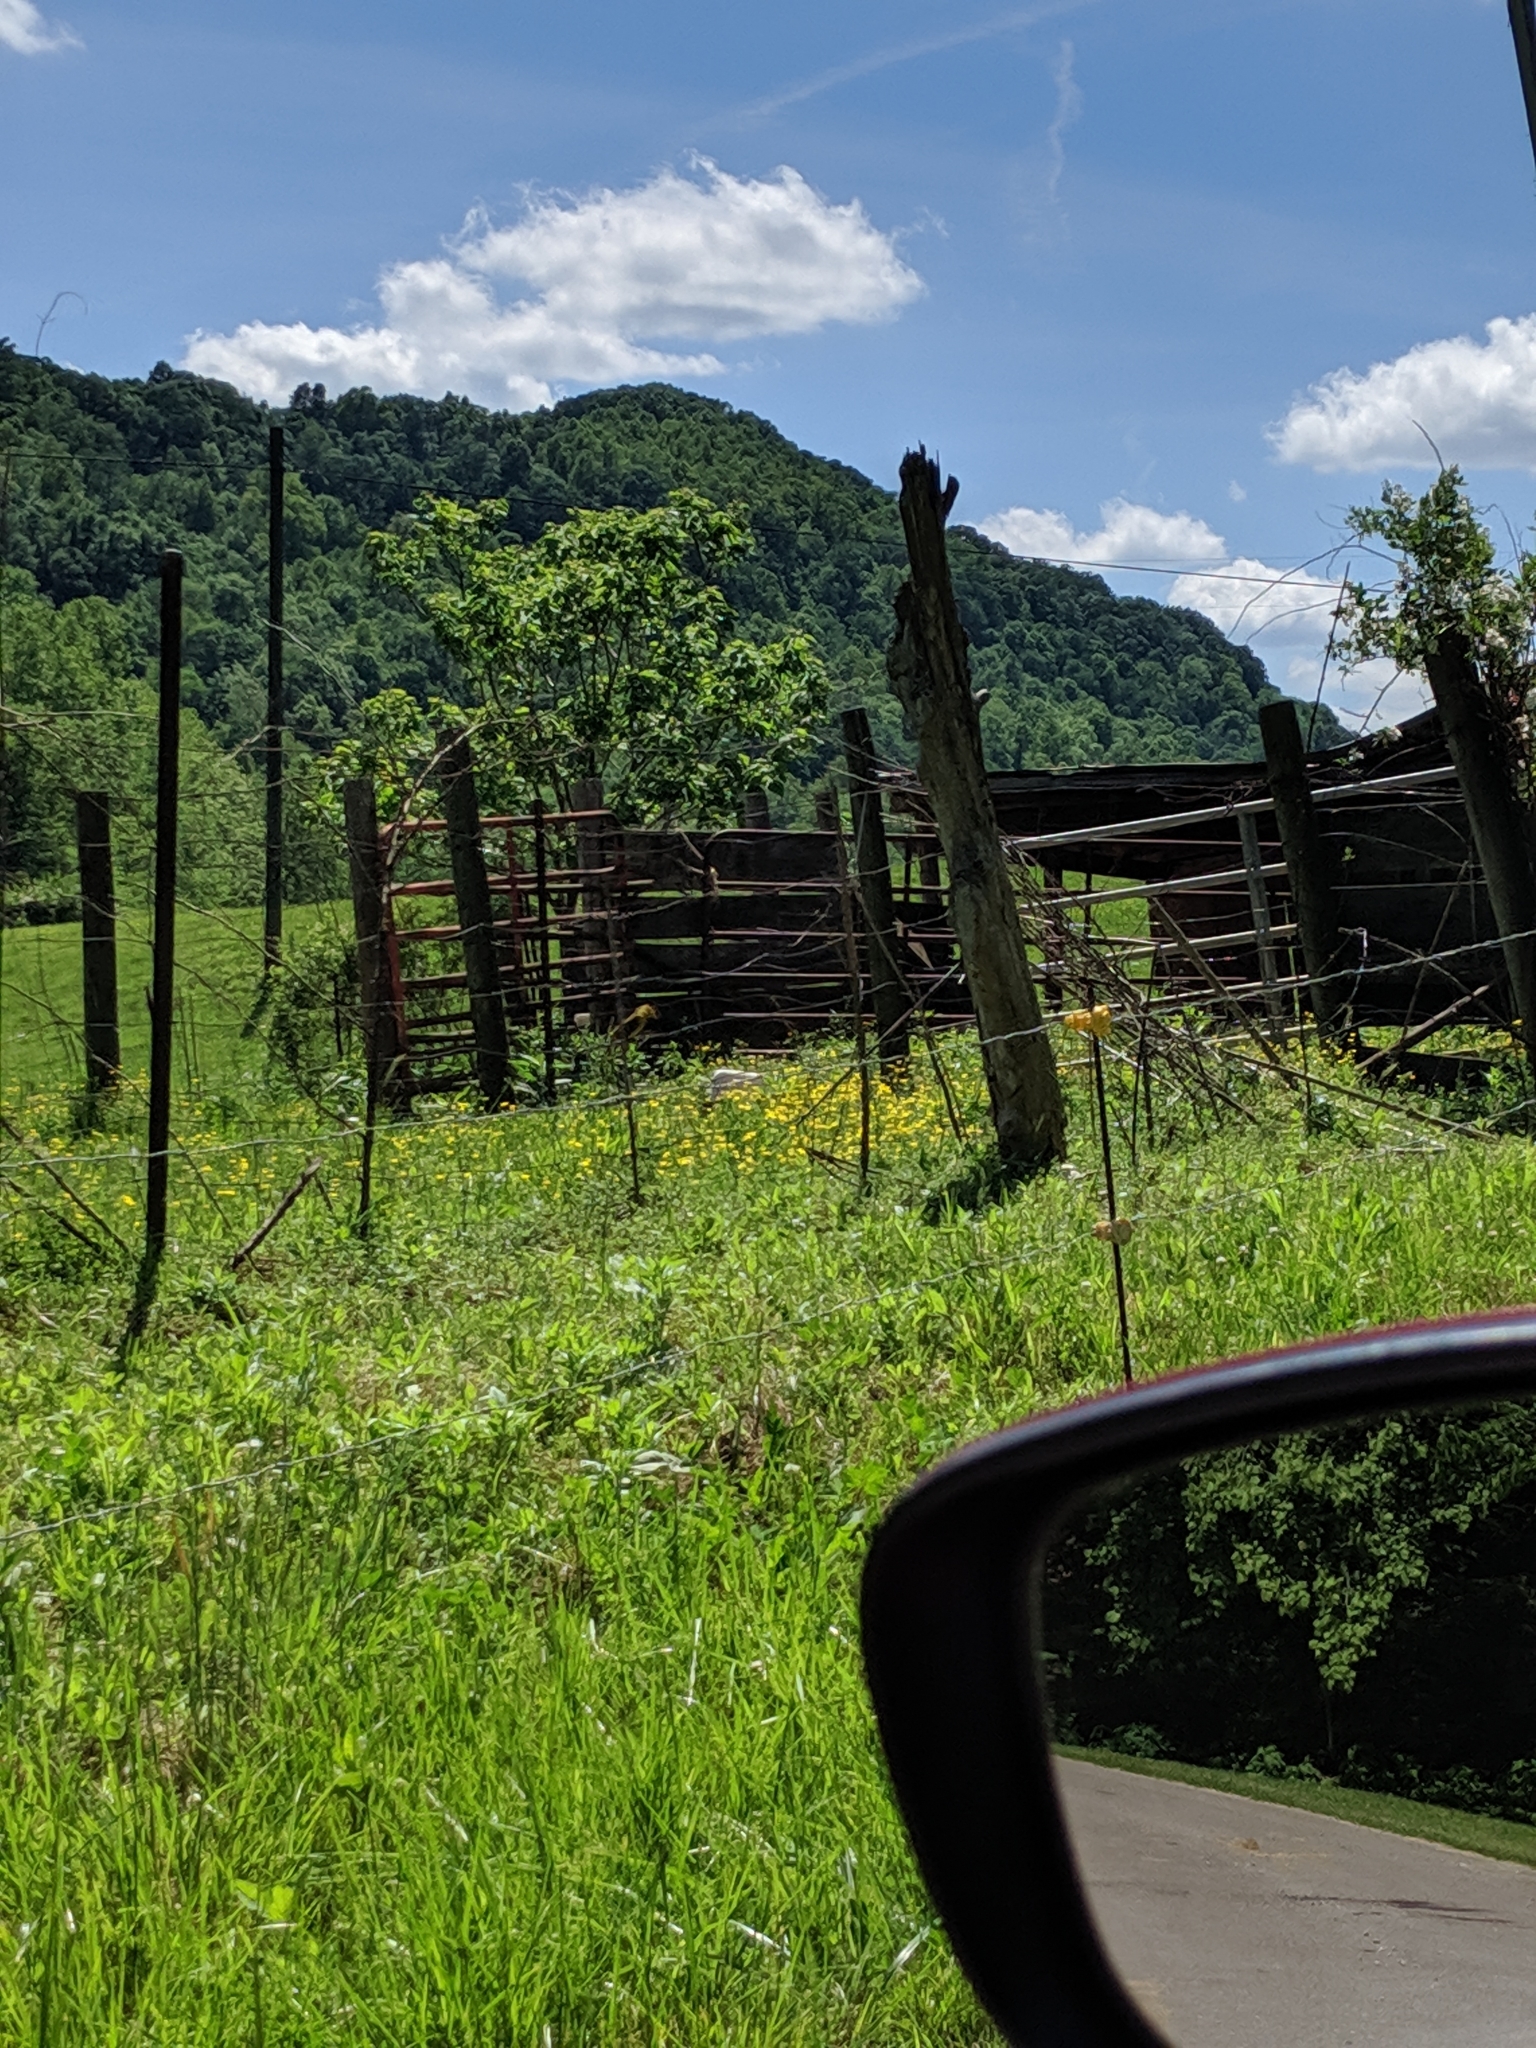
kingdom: Animalia
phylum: Chordata
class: Aves
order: Passeriformes
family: Cardinalidae
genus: Piranga
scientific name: Piranga rubra
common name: Summer tanager
